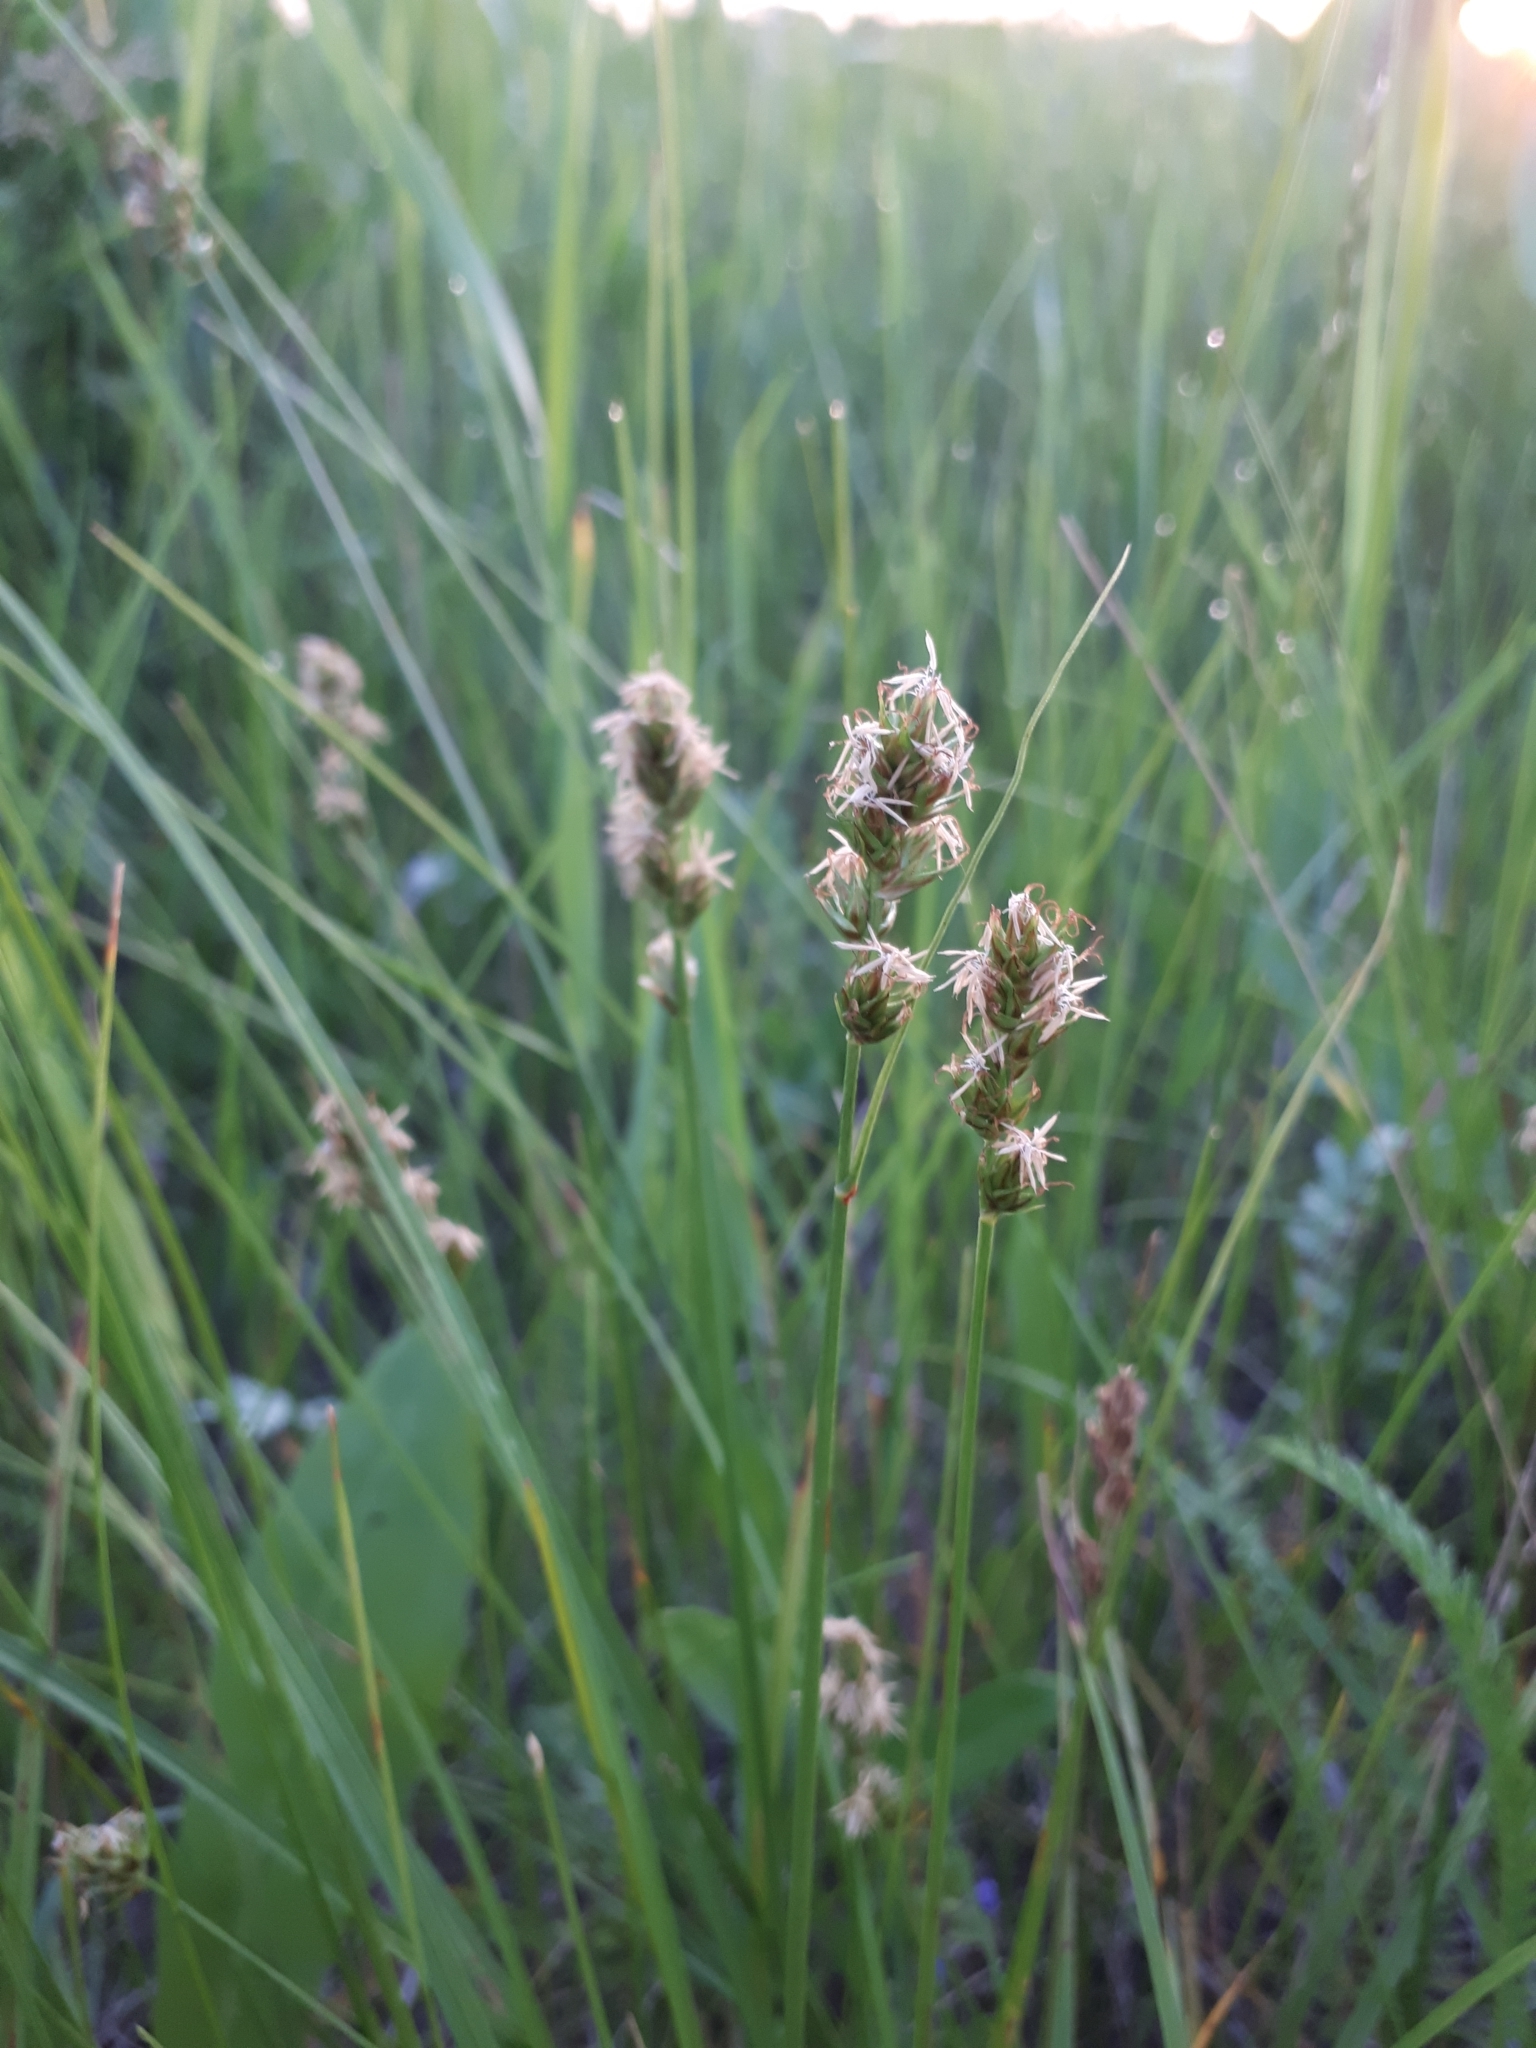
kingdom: Plantae
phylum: Tracheophyta
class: Liliopsida
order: Poales
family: Cyperaceae
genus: Carex
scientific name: Carex leporina
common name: Oval sedge
